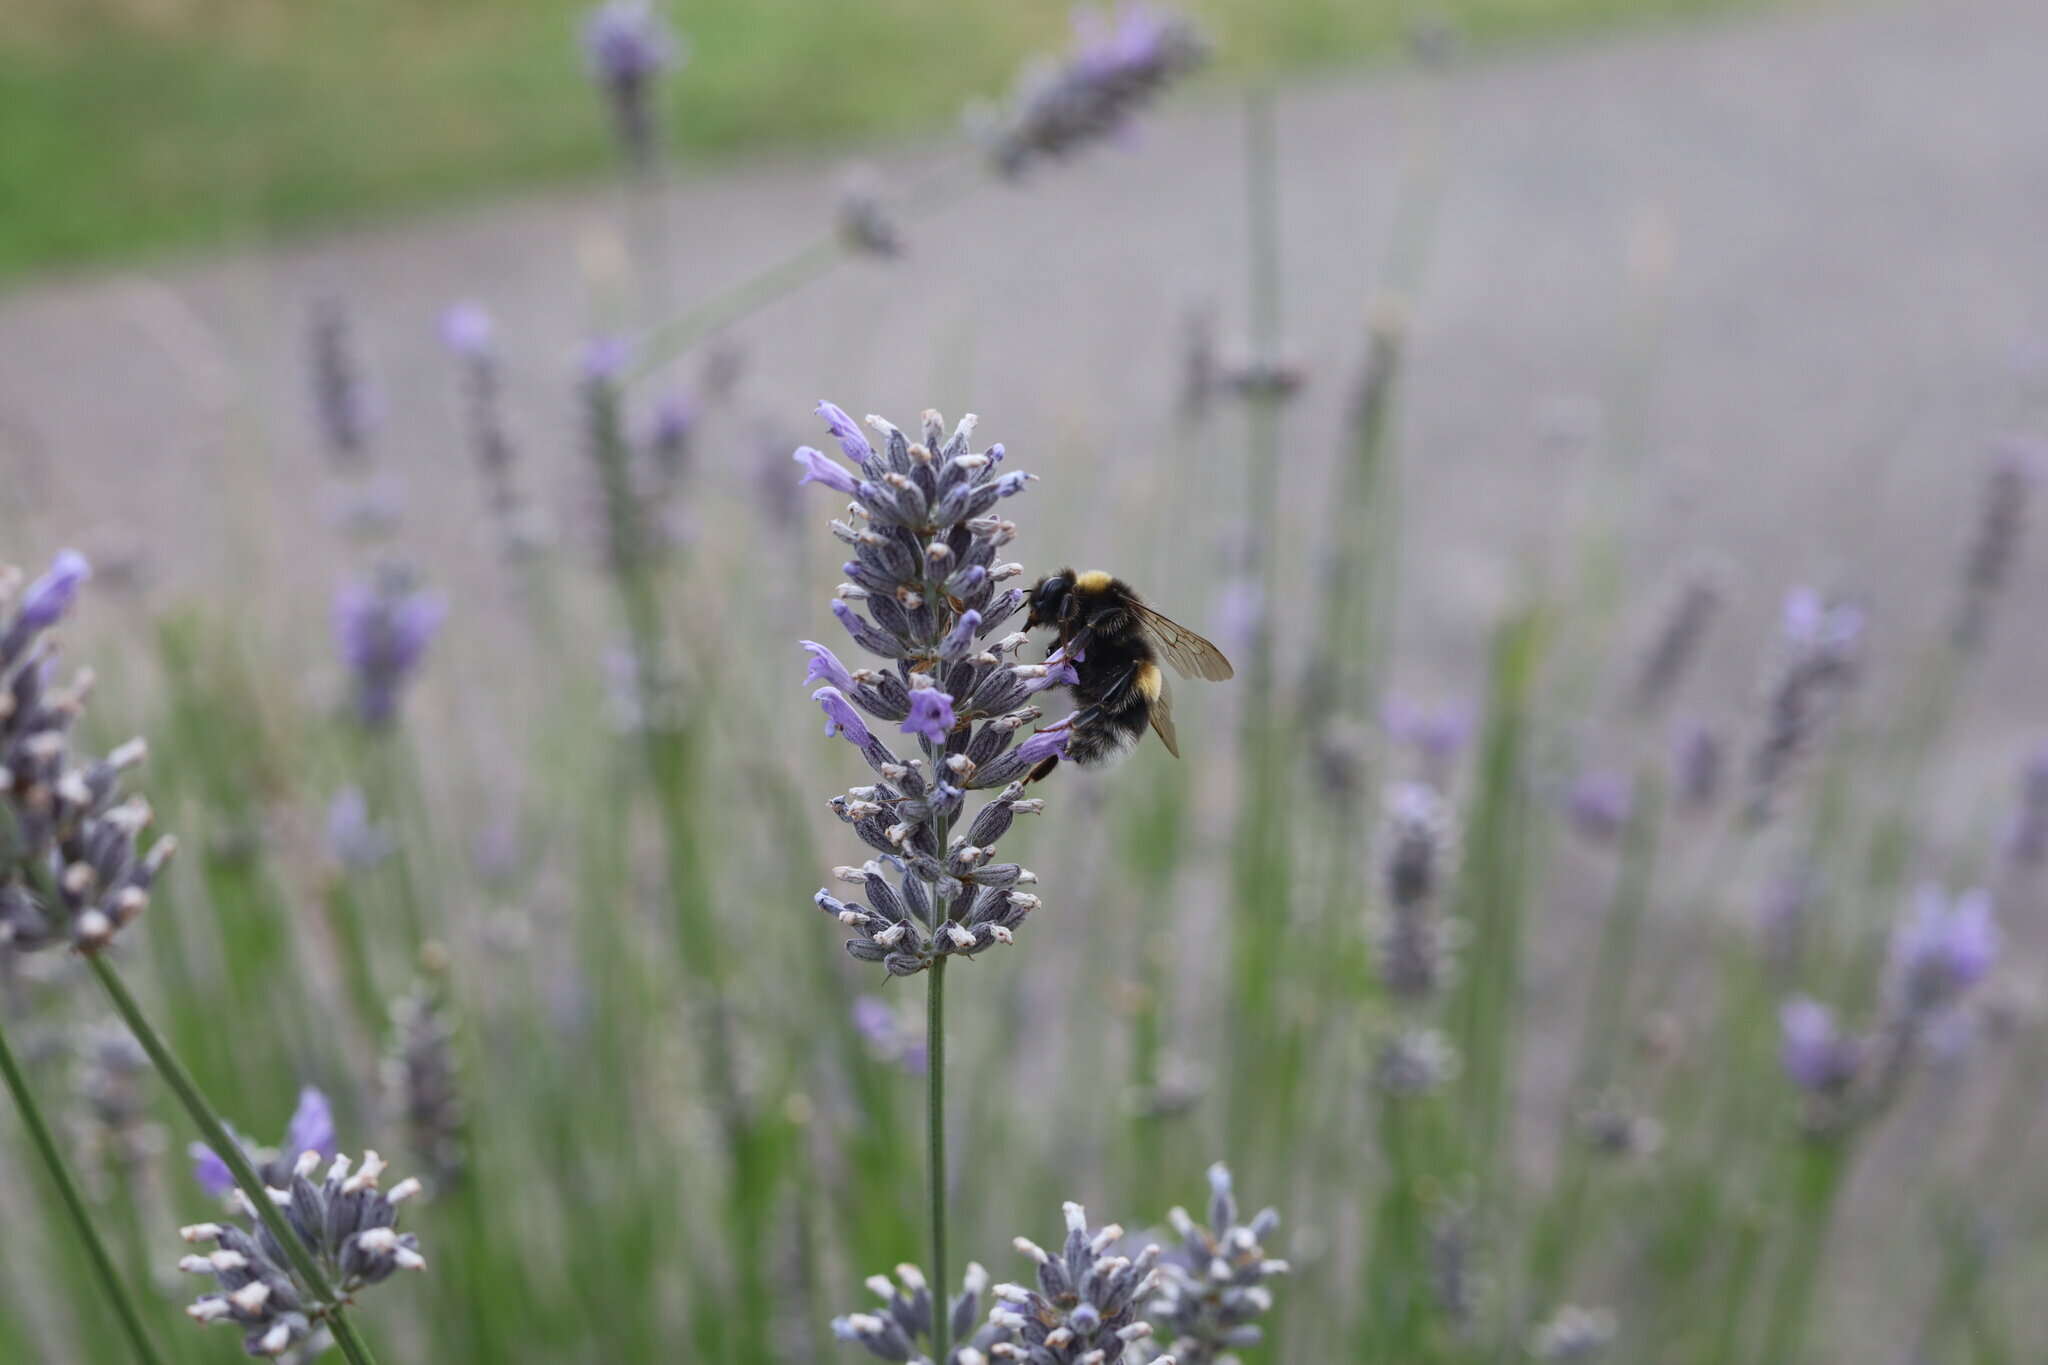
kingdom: Animalia
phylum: Arthropoda
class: Insecta
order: Hymenoptera
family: Apidae
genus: Bombus
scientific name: Bombus terrestris
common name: Buff-tailed bumblebee
